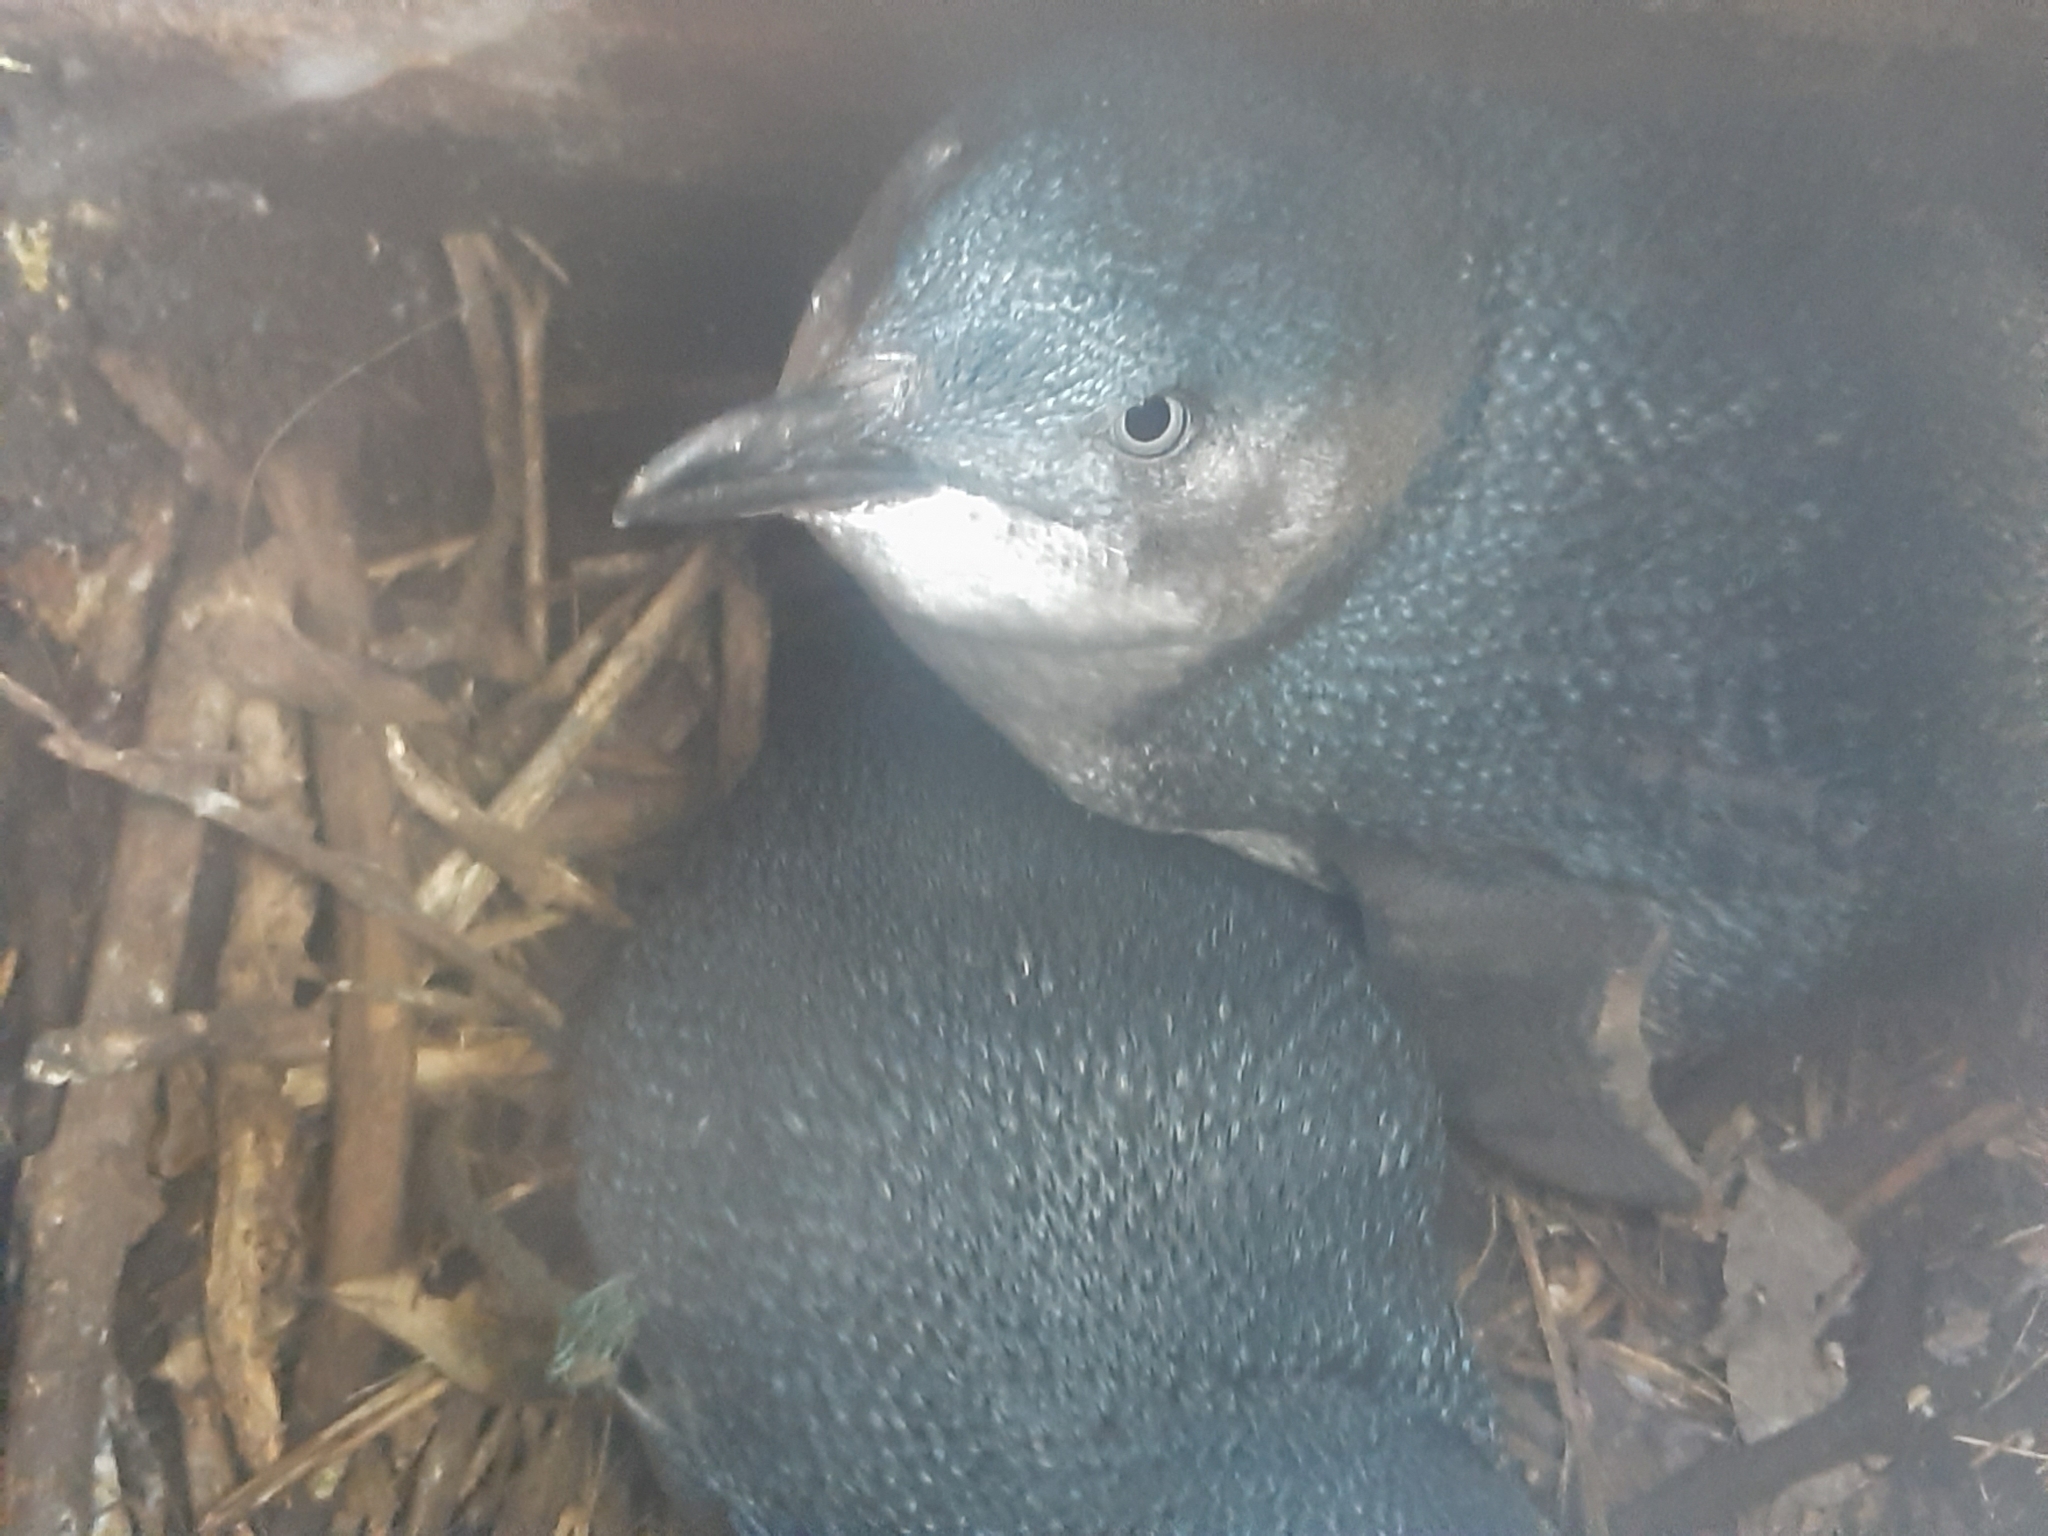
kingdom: Animalia
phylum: Chordata
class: Aves
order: Sphenisciformes
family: Spheniscidae
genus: Eudyptula
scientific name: Eudyptula minor
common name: Little penguin
